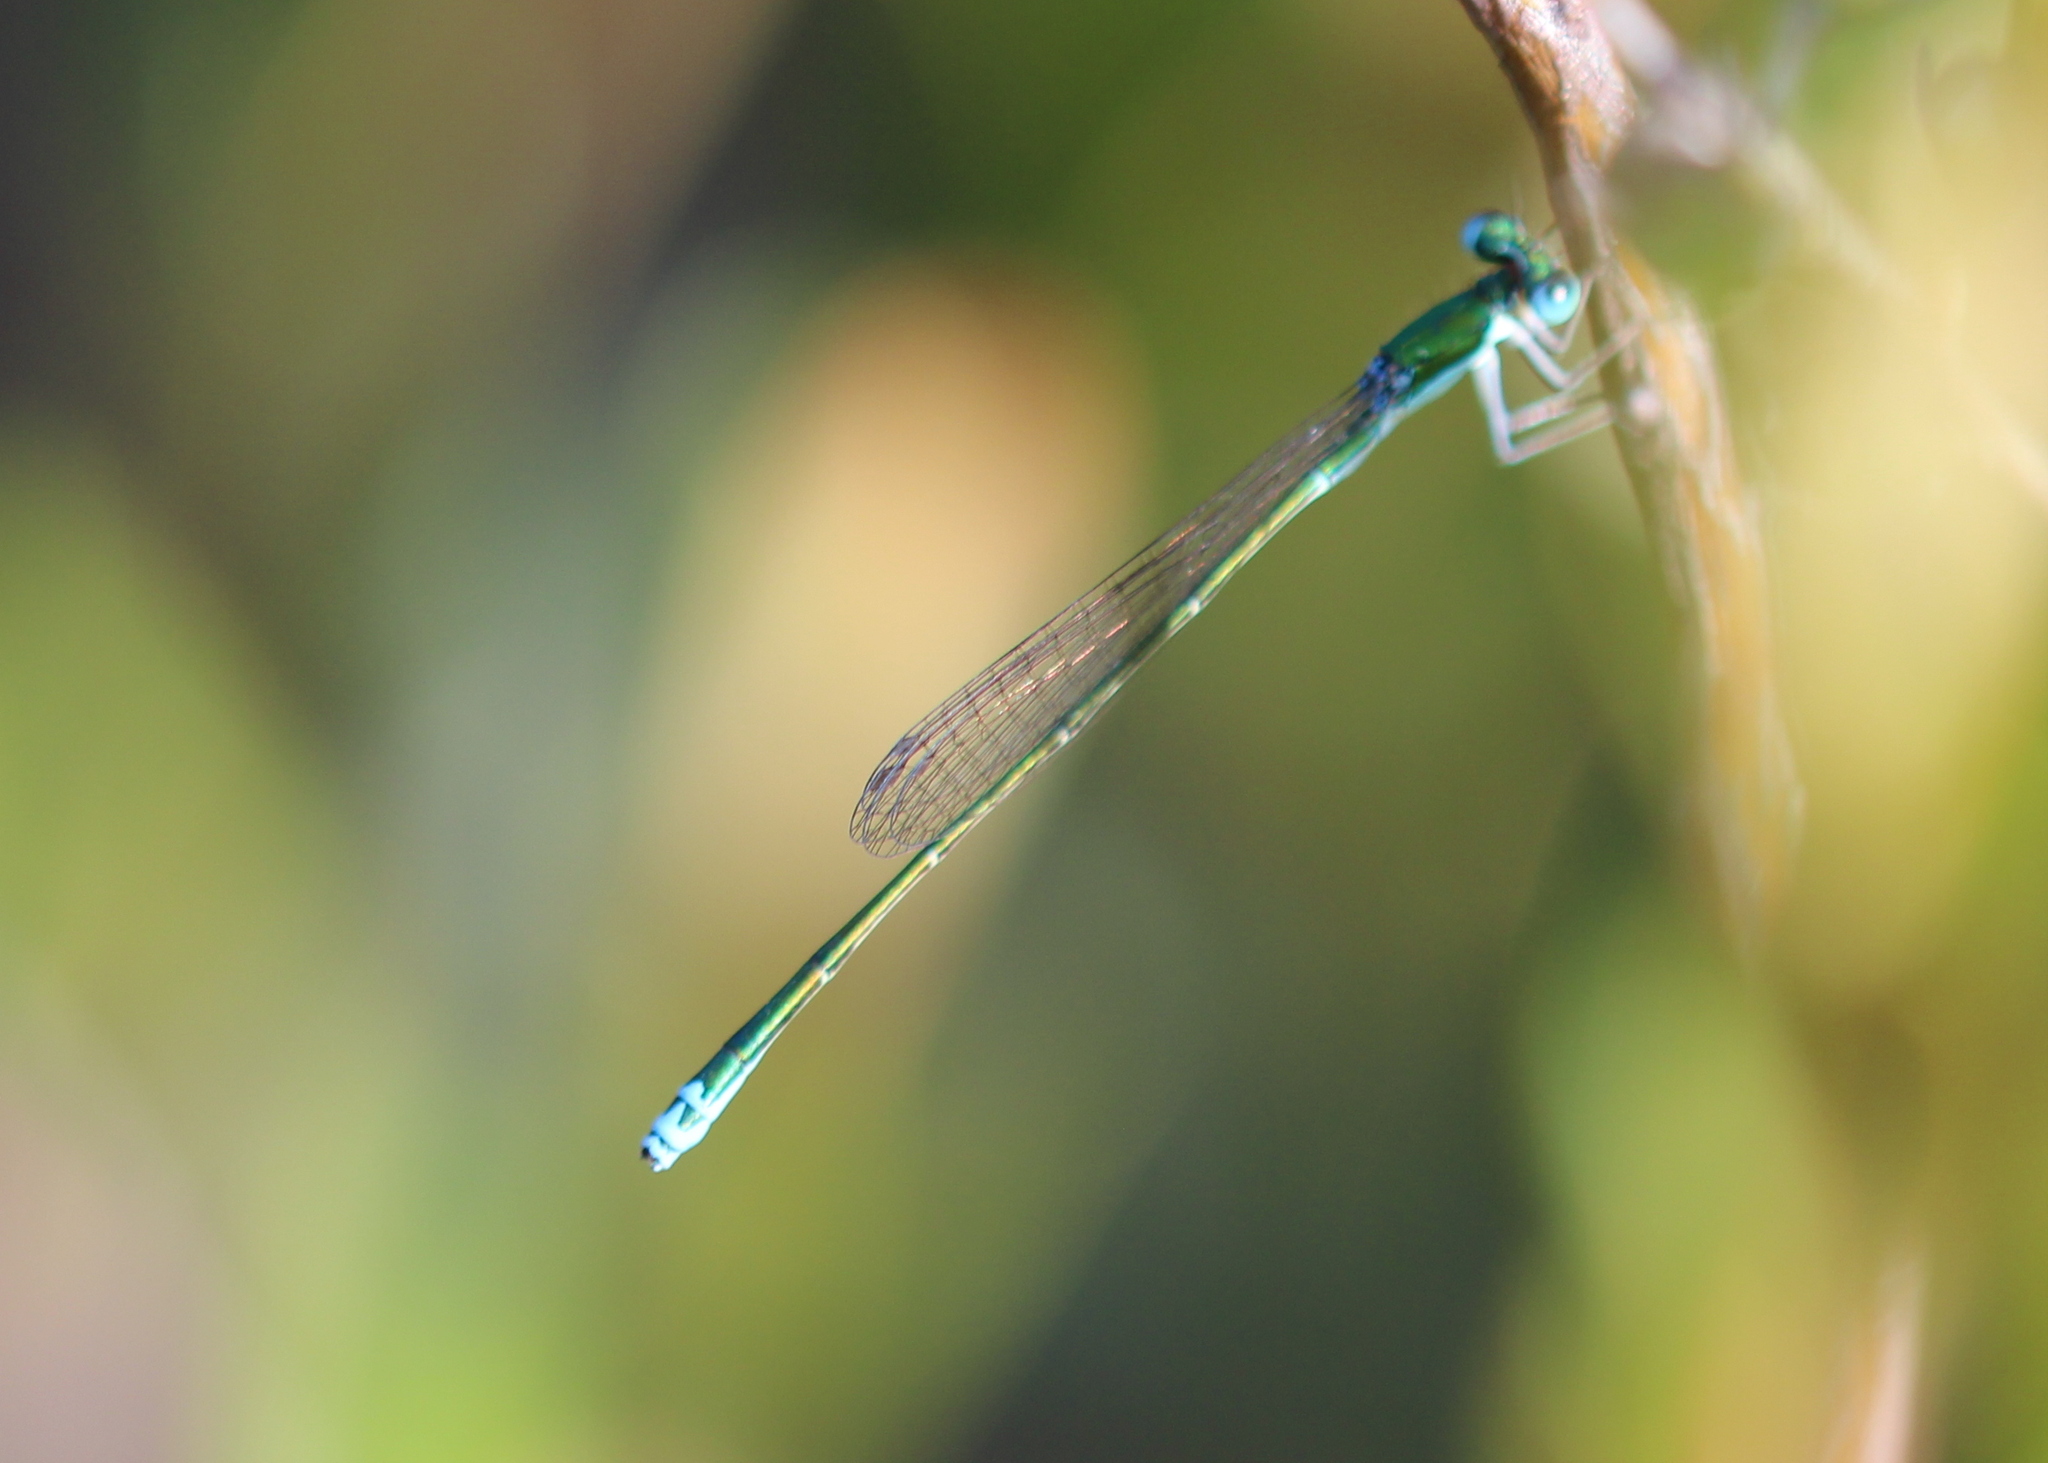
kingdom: Animalia
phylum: Arthropoda
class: Insecta
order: Odonata
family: Coenagrionidae
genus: Nehalennia
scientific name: Nehalennia irene
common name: Sedge sprite
